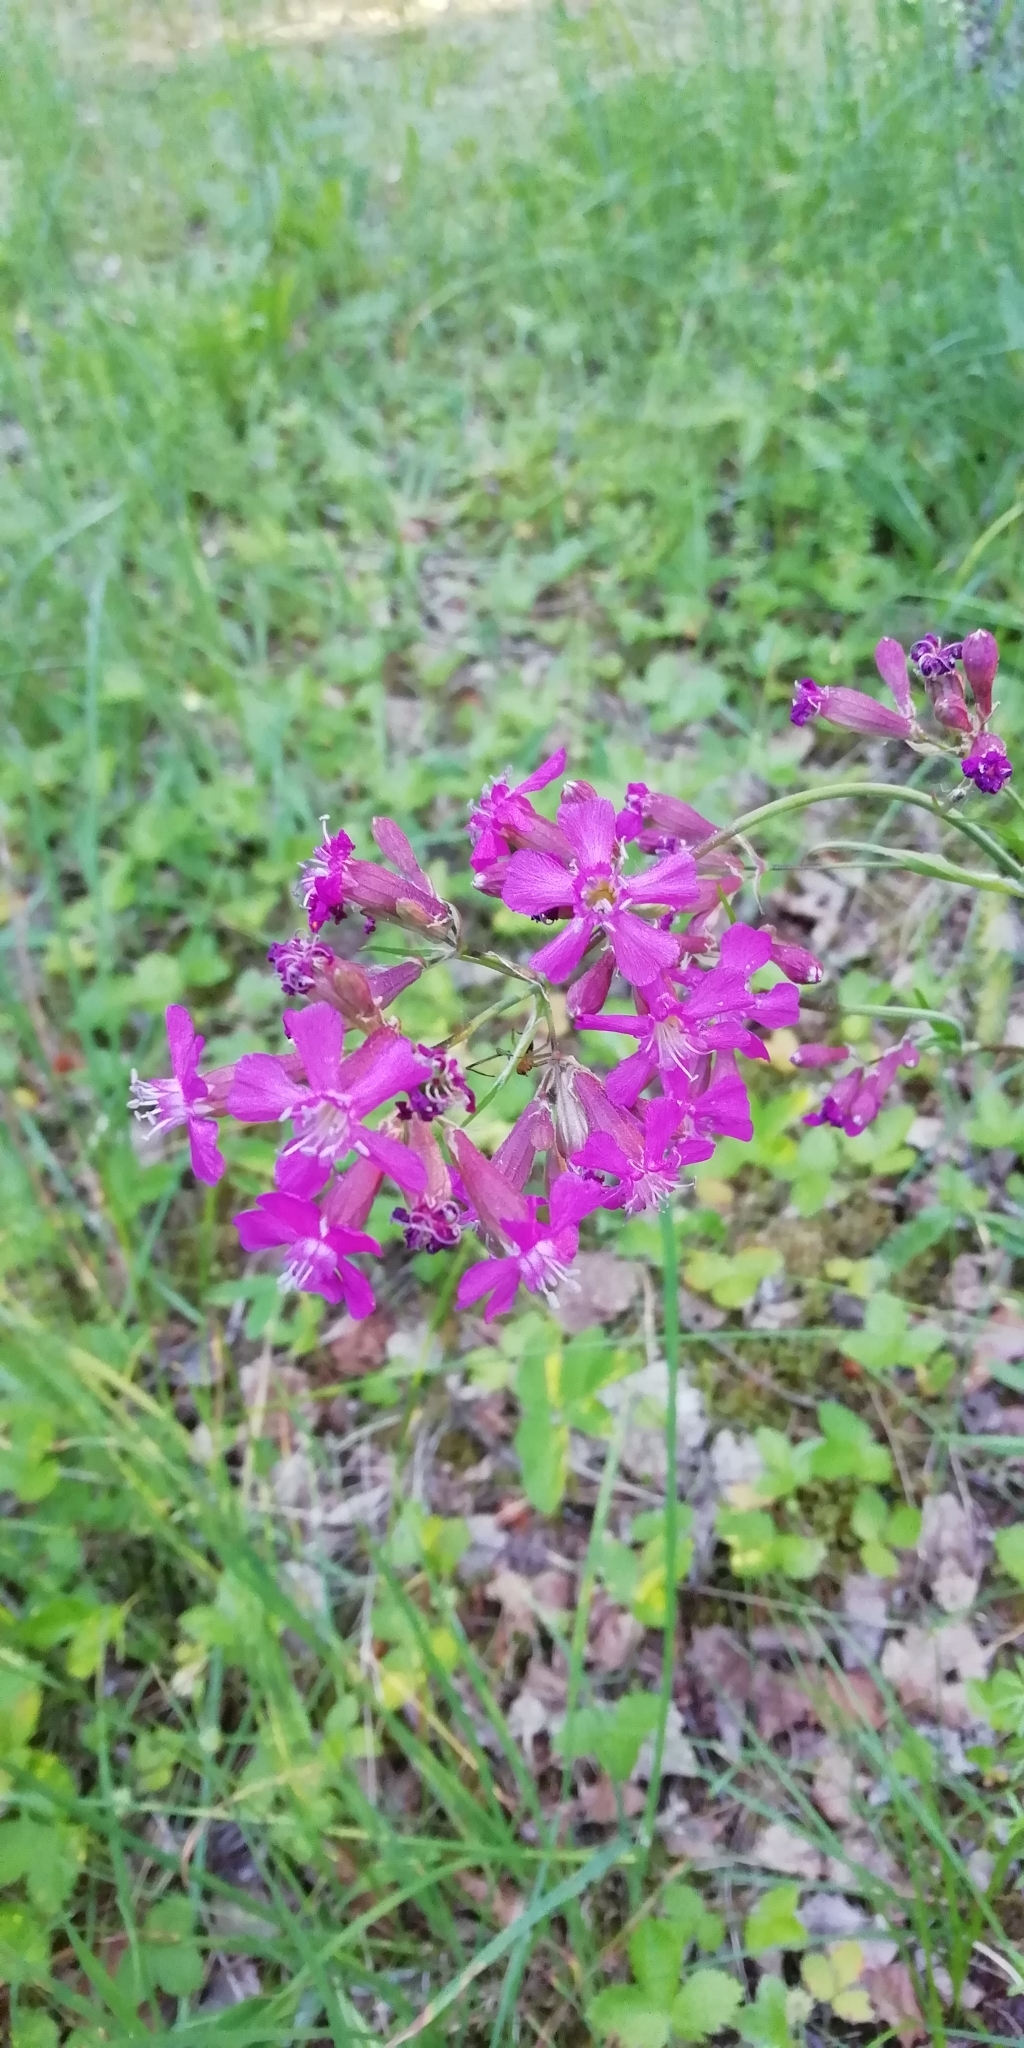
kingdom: Plantae
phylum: Tracheophyta
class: Magnoliopsida
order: Caryophyllales
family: Caryophyllaceae
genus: Viscaria
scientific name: Viscaria vulgaris
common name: Clammy campion
